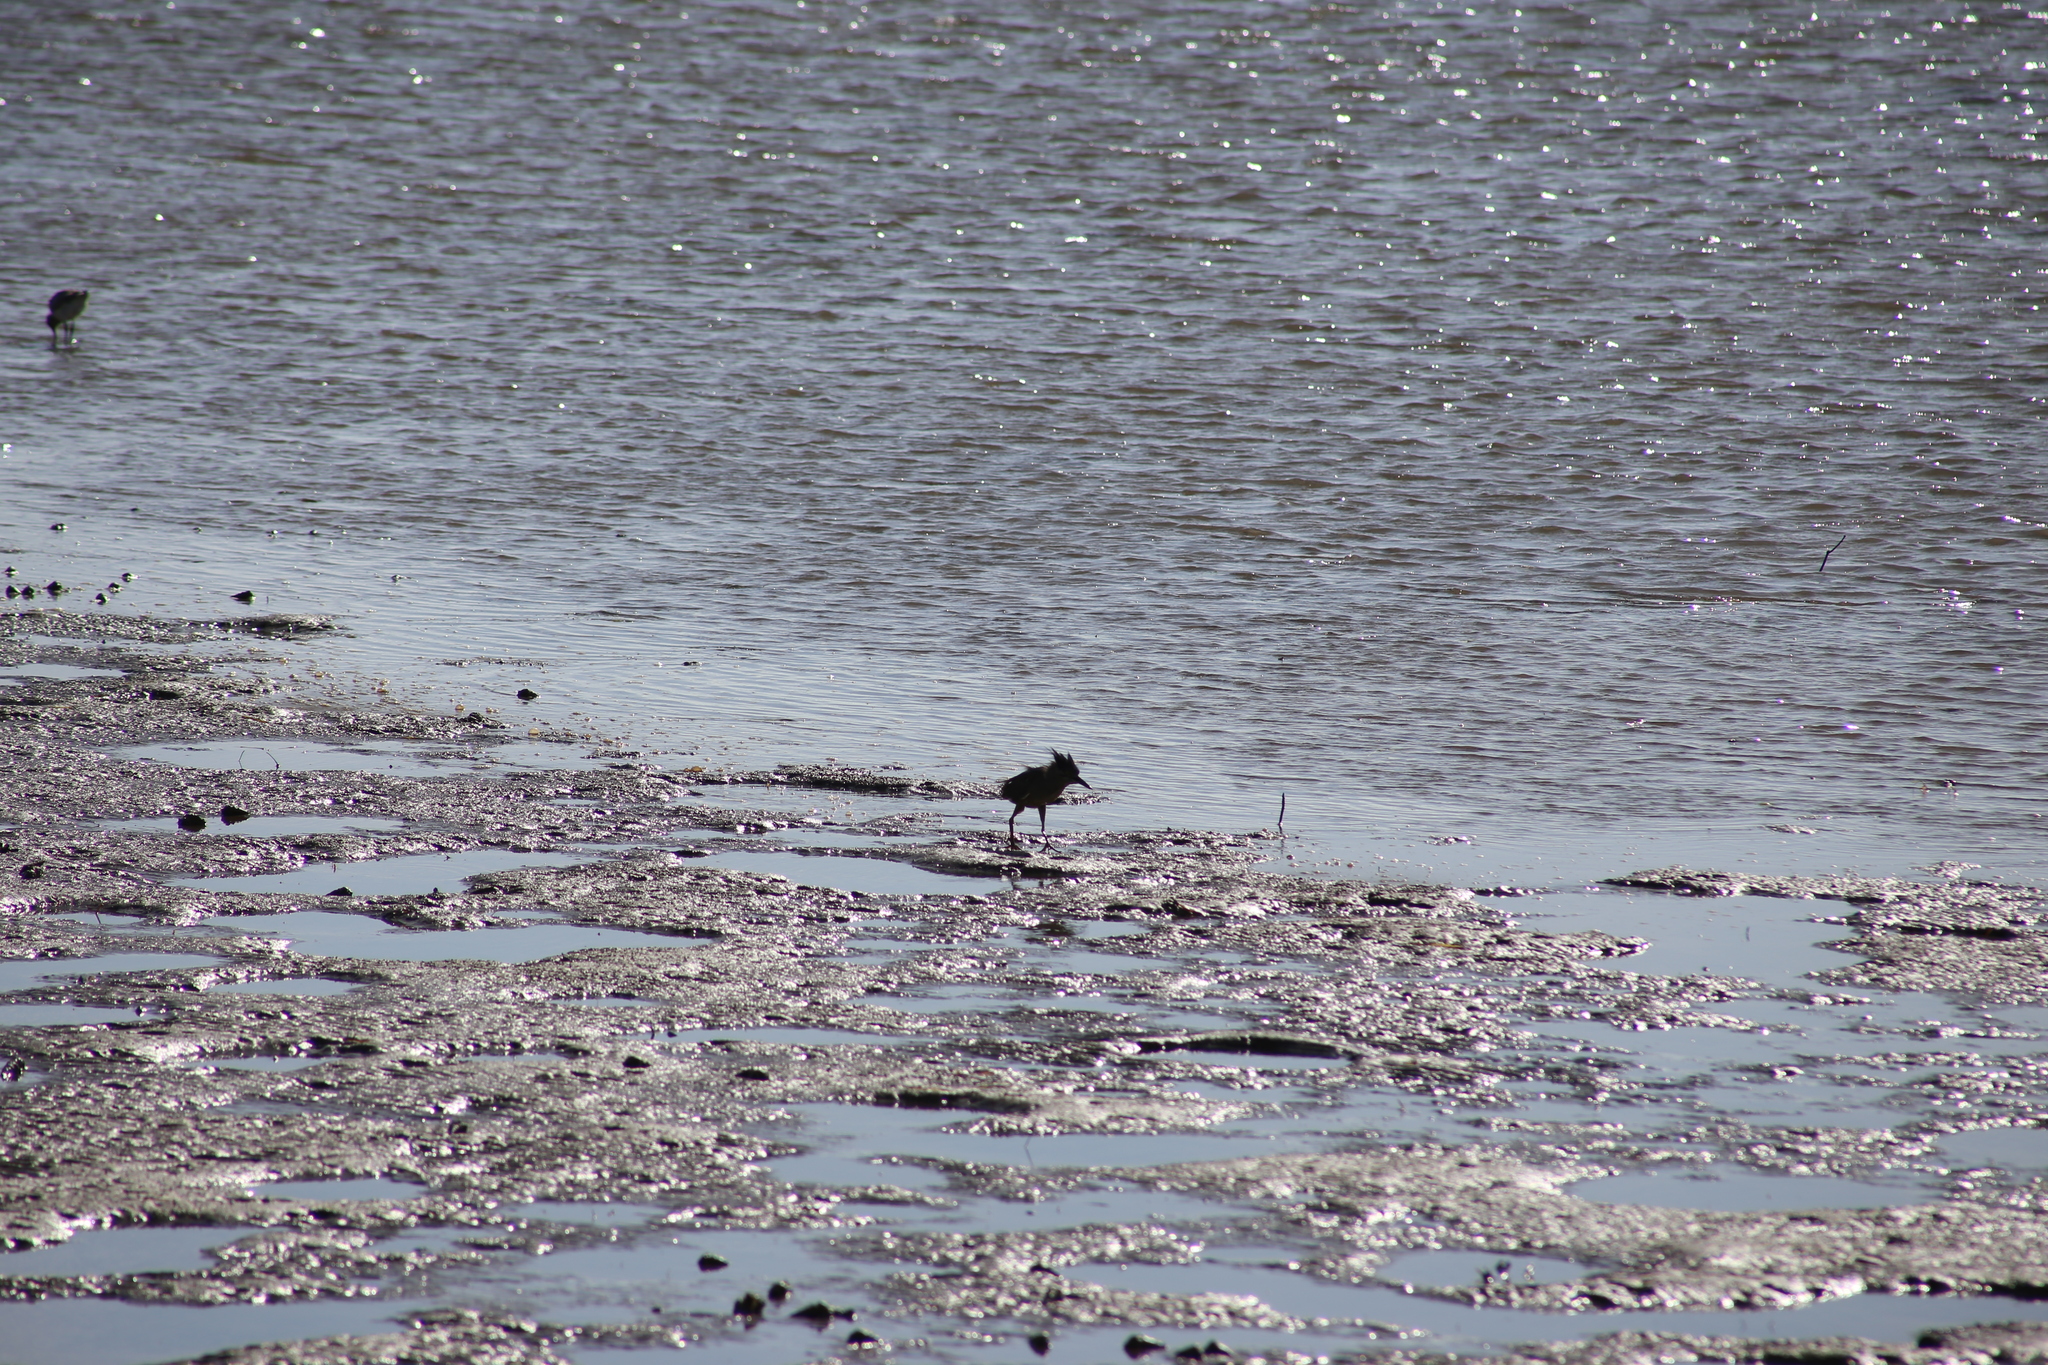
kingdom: Animalia
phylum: Chordata
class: Aves
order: Pelecaniformes
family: Ardeidae
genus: Butorides
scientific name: Butorides striata
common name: Striated heron
